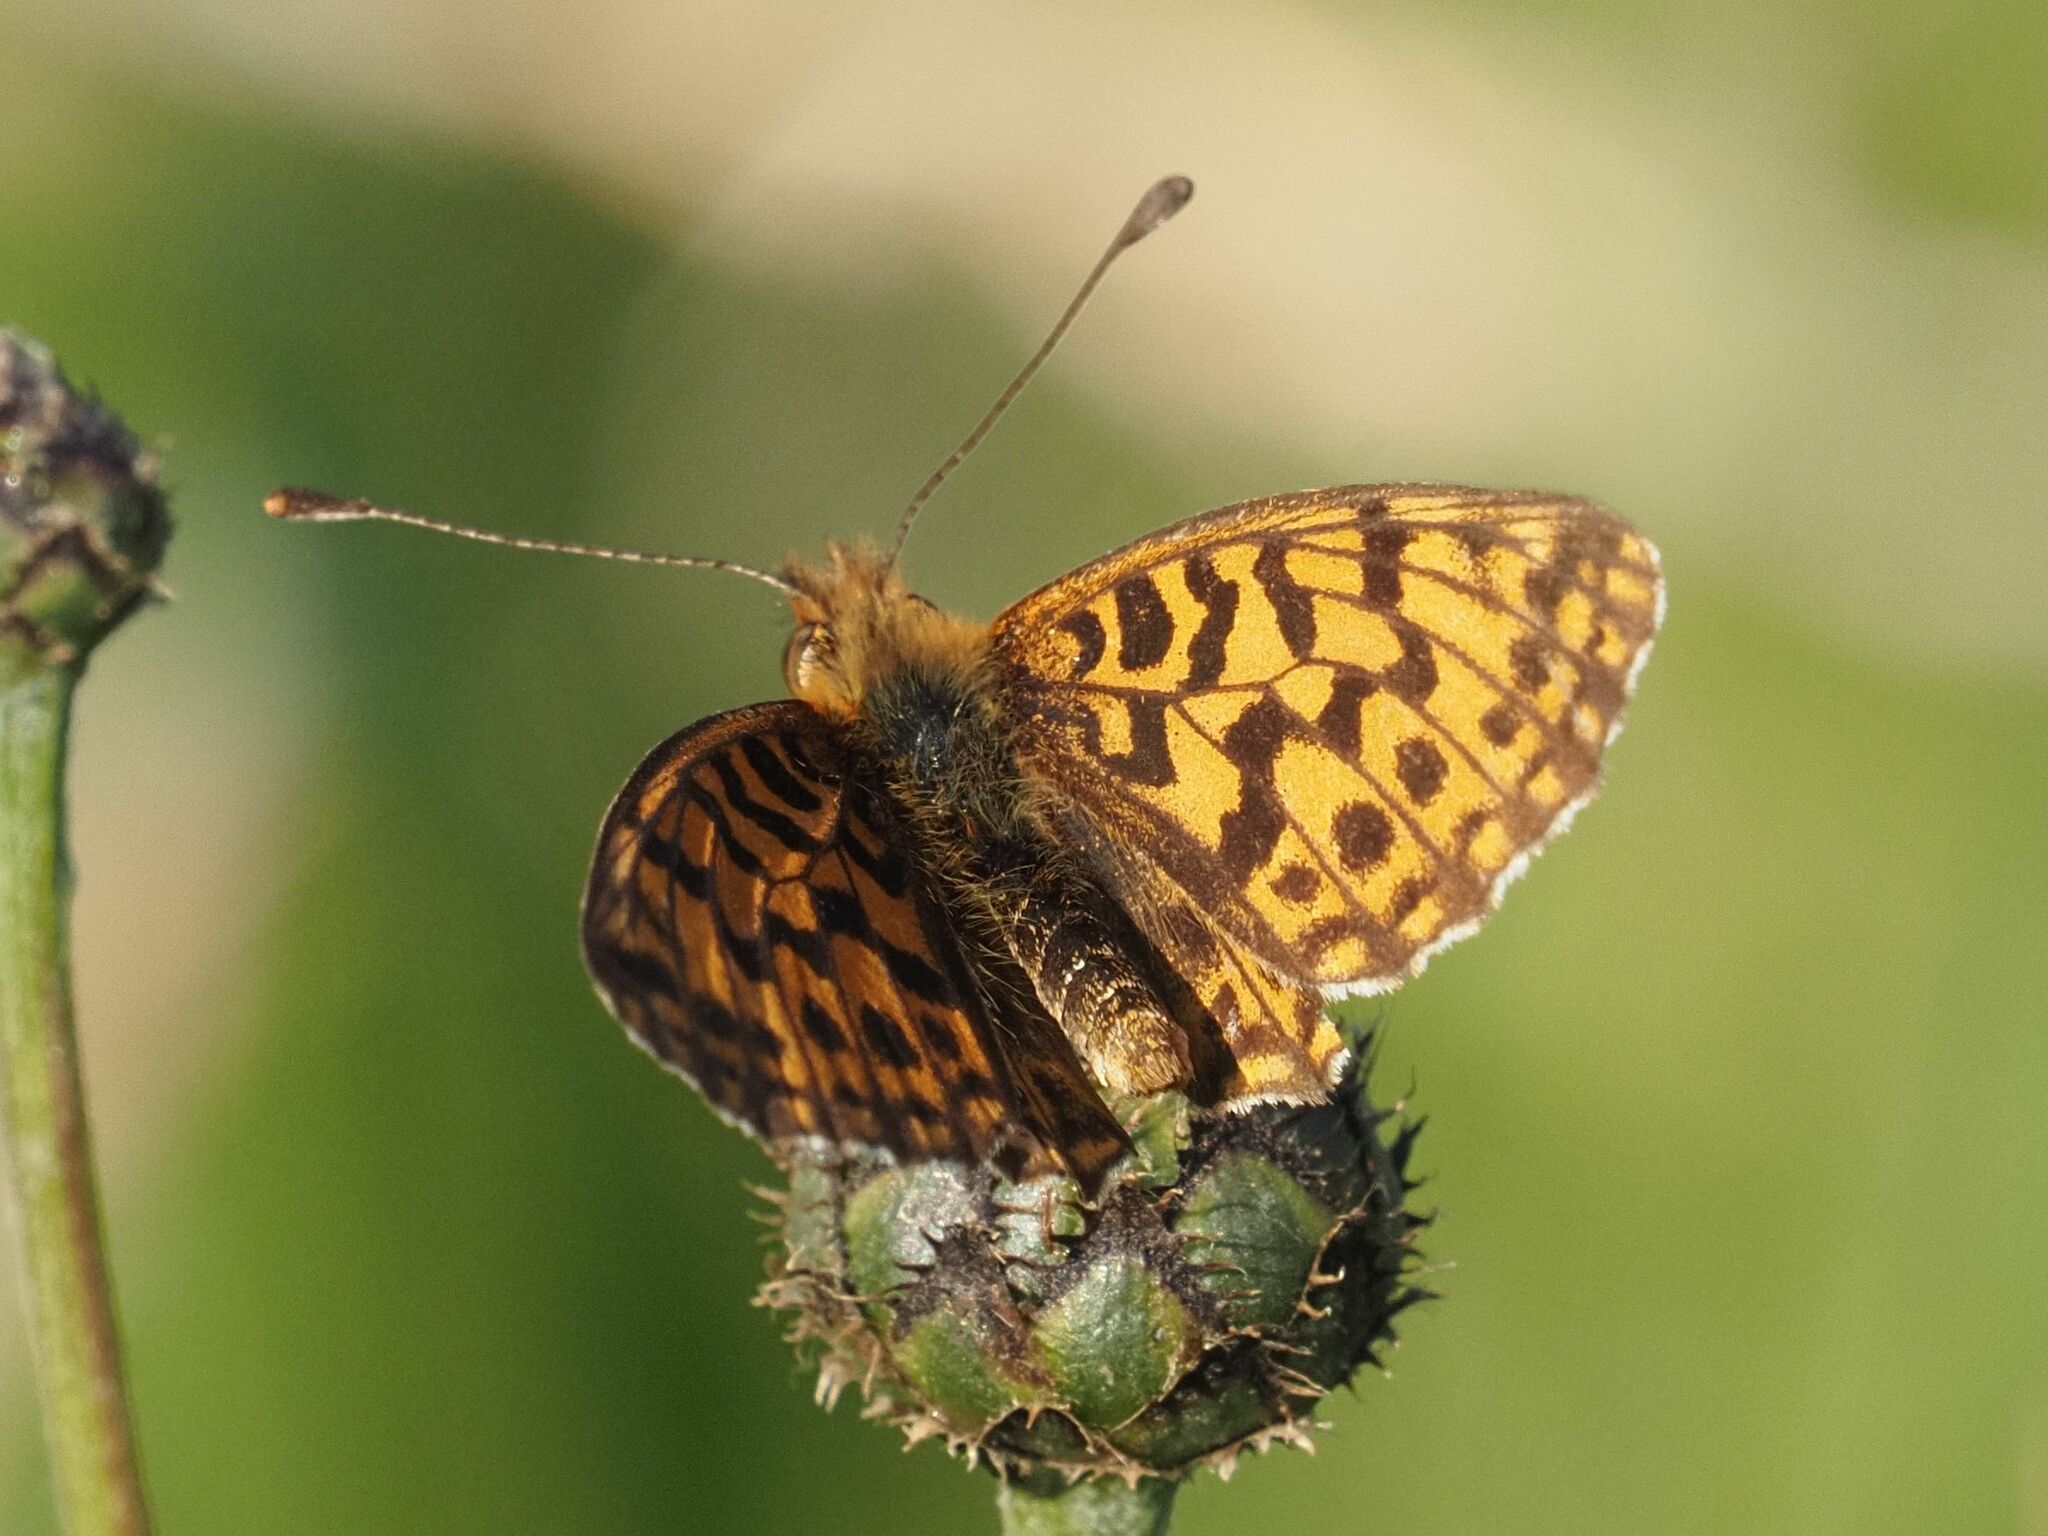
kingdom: Animalia
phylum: Arthropoda
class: Insecta
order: Lepidoptera
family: Nymphalidae
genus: Boloria
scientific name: Boloria dia
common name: Weaver's fritillary
